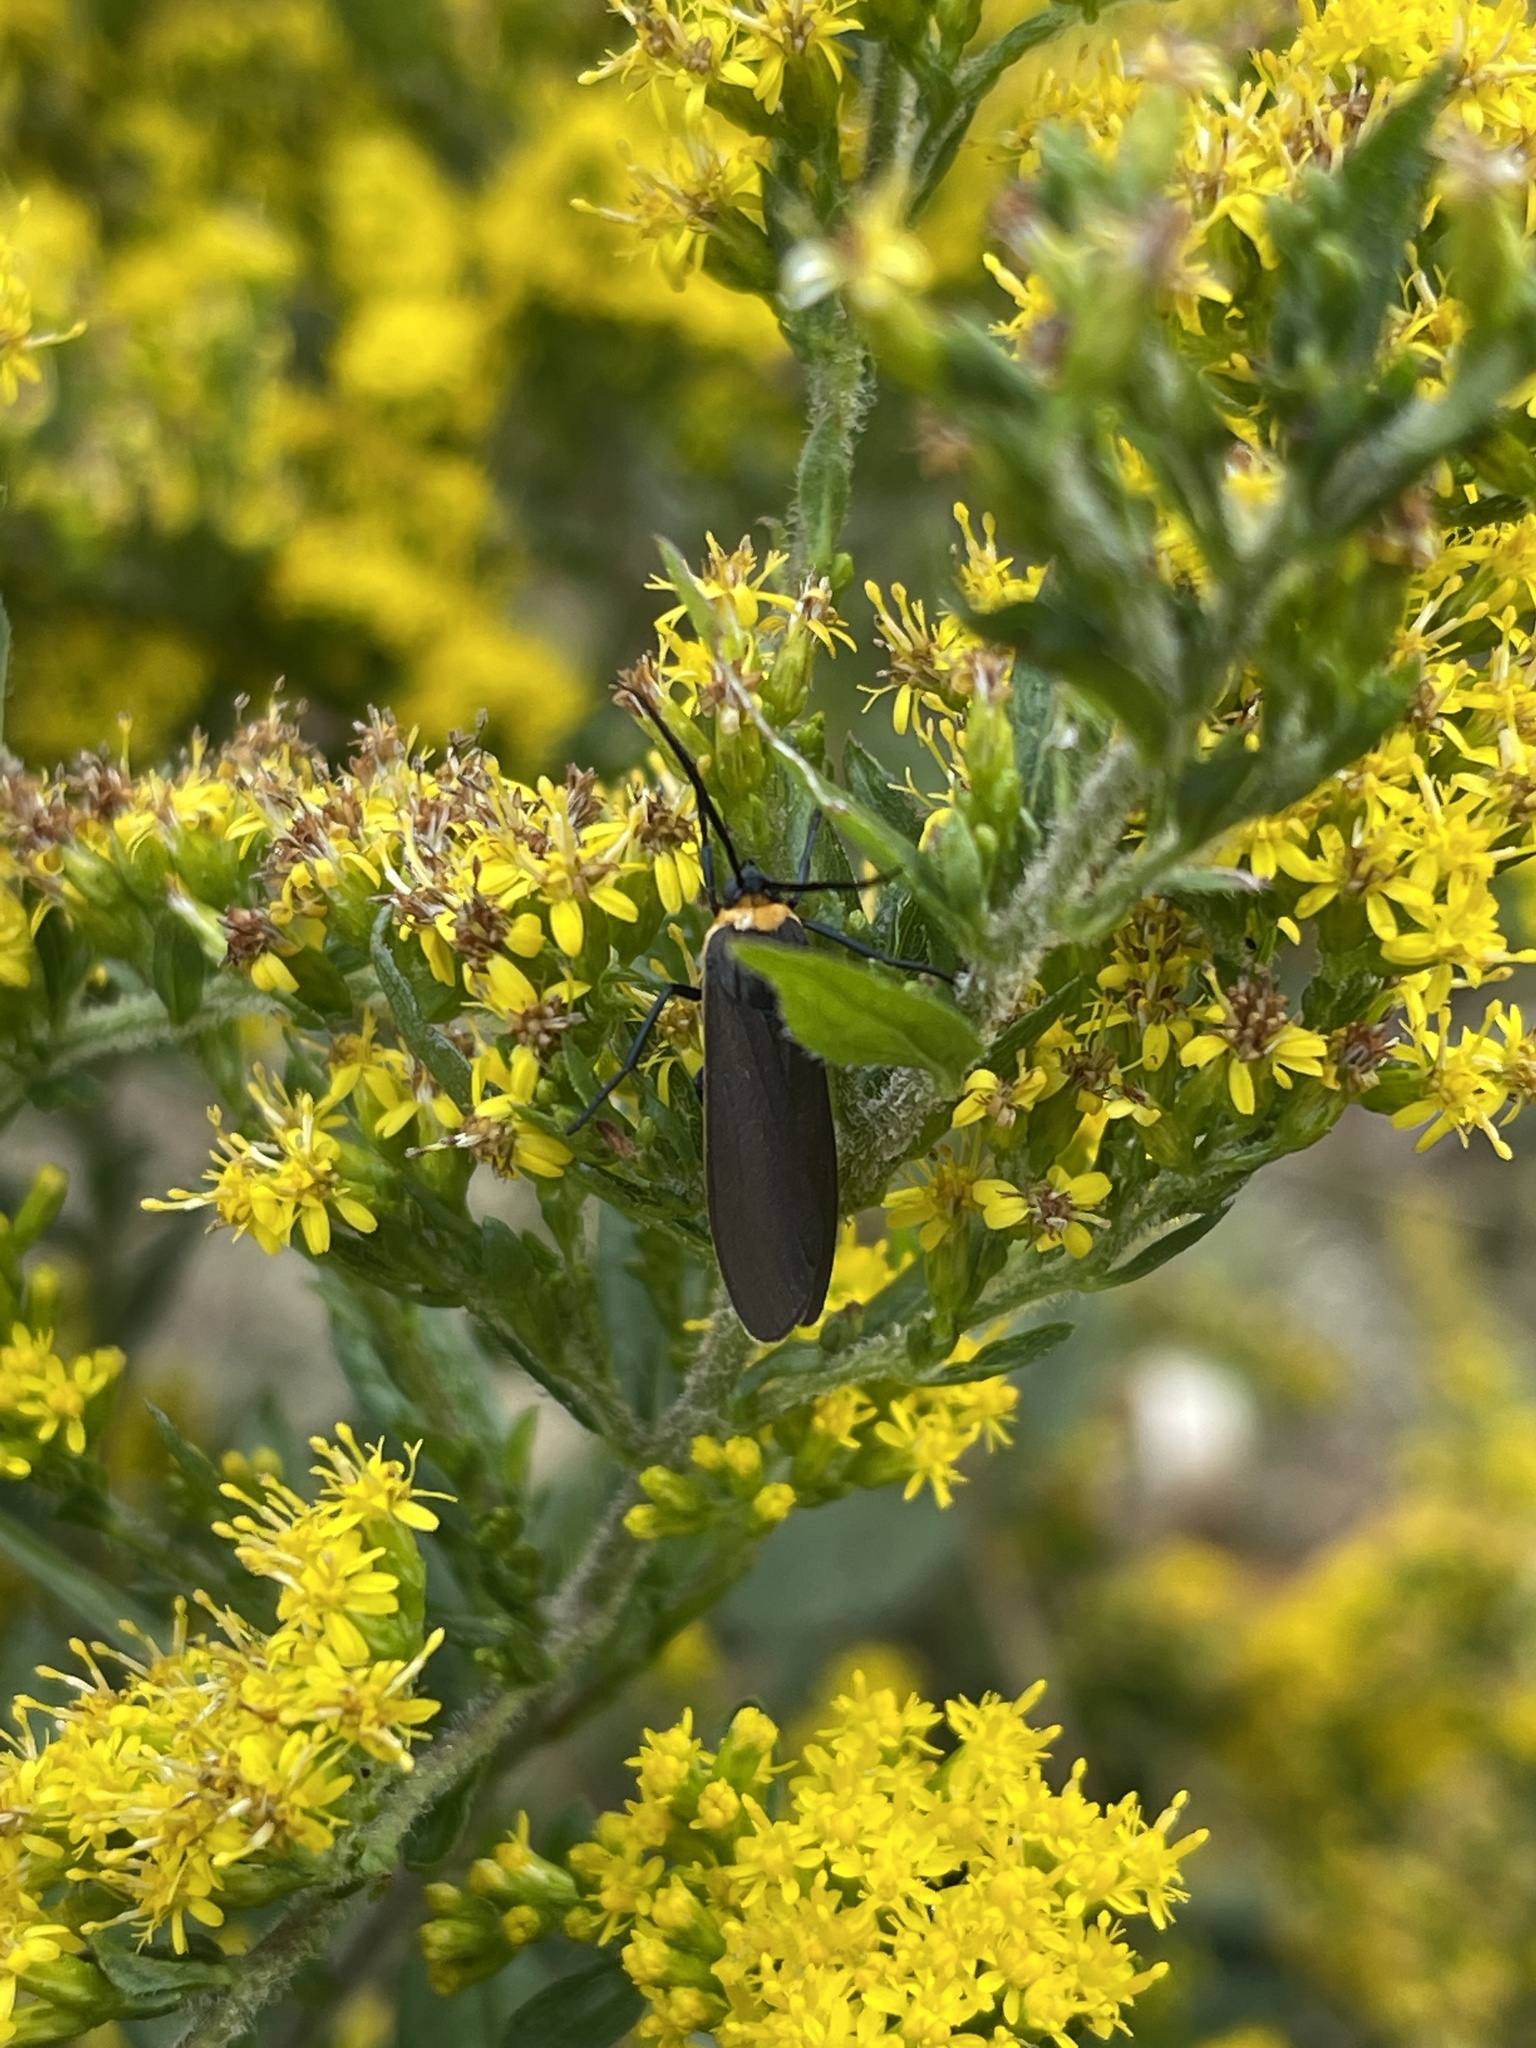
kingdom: Animalia
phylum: Arthropoda
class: Insecta
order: Lepidoptera
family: Erebidae
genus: Cisseps
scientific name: Cisseps fulvicollis
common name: Yellow-collared scape moth
